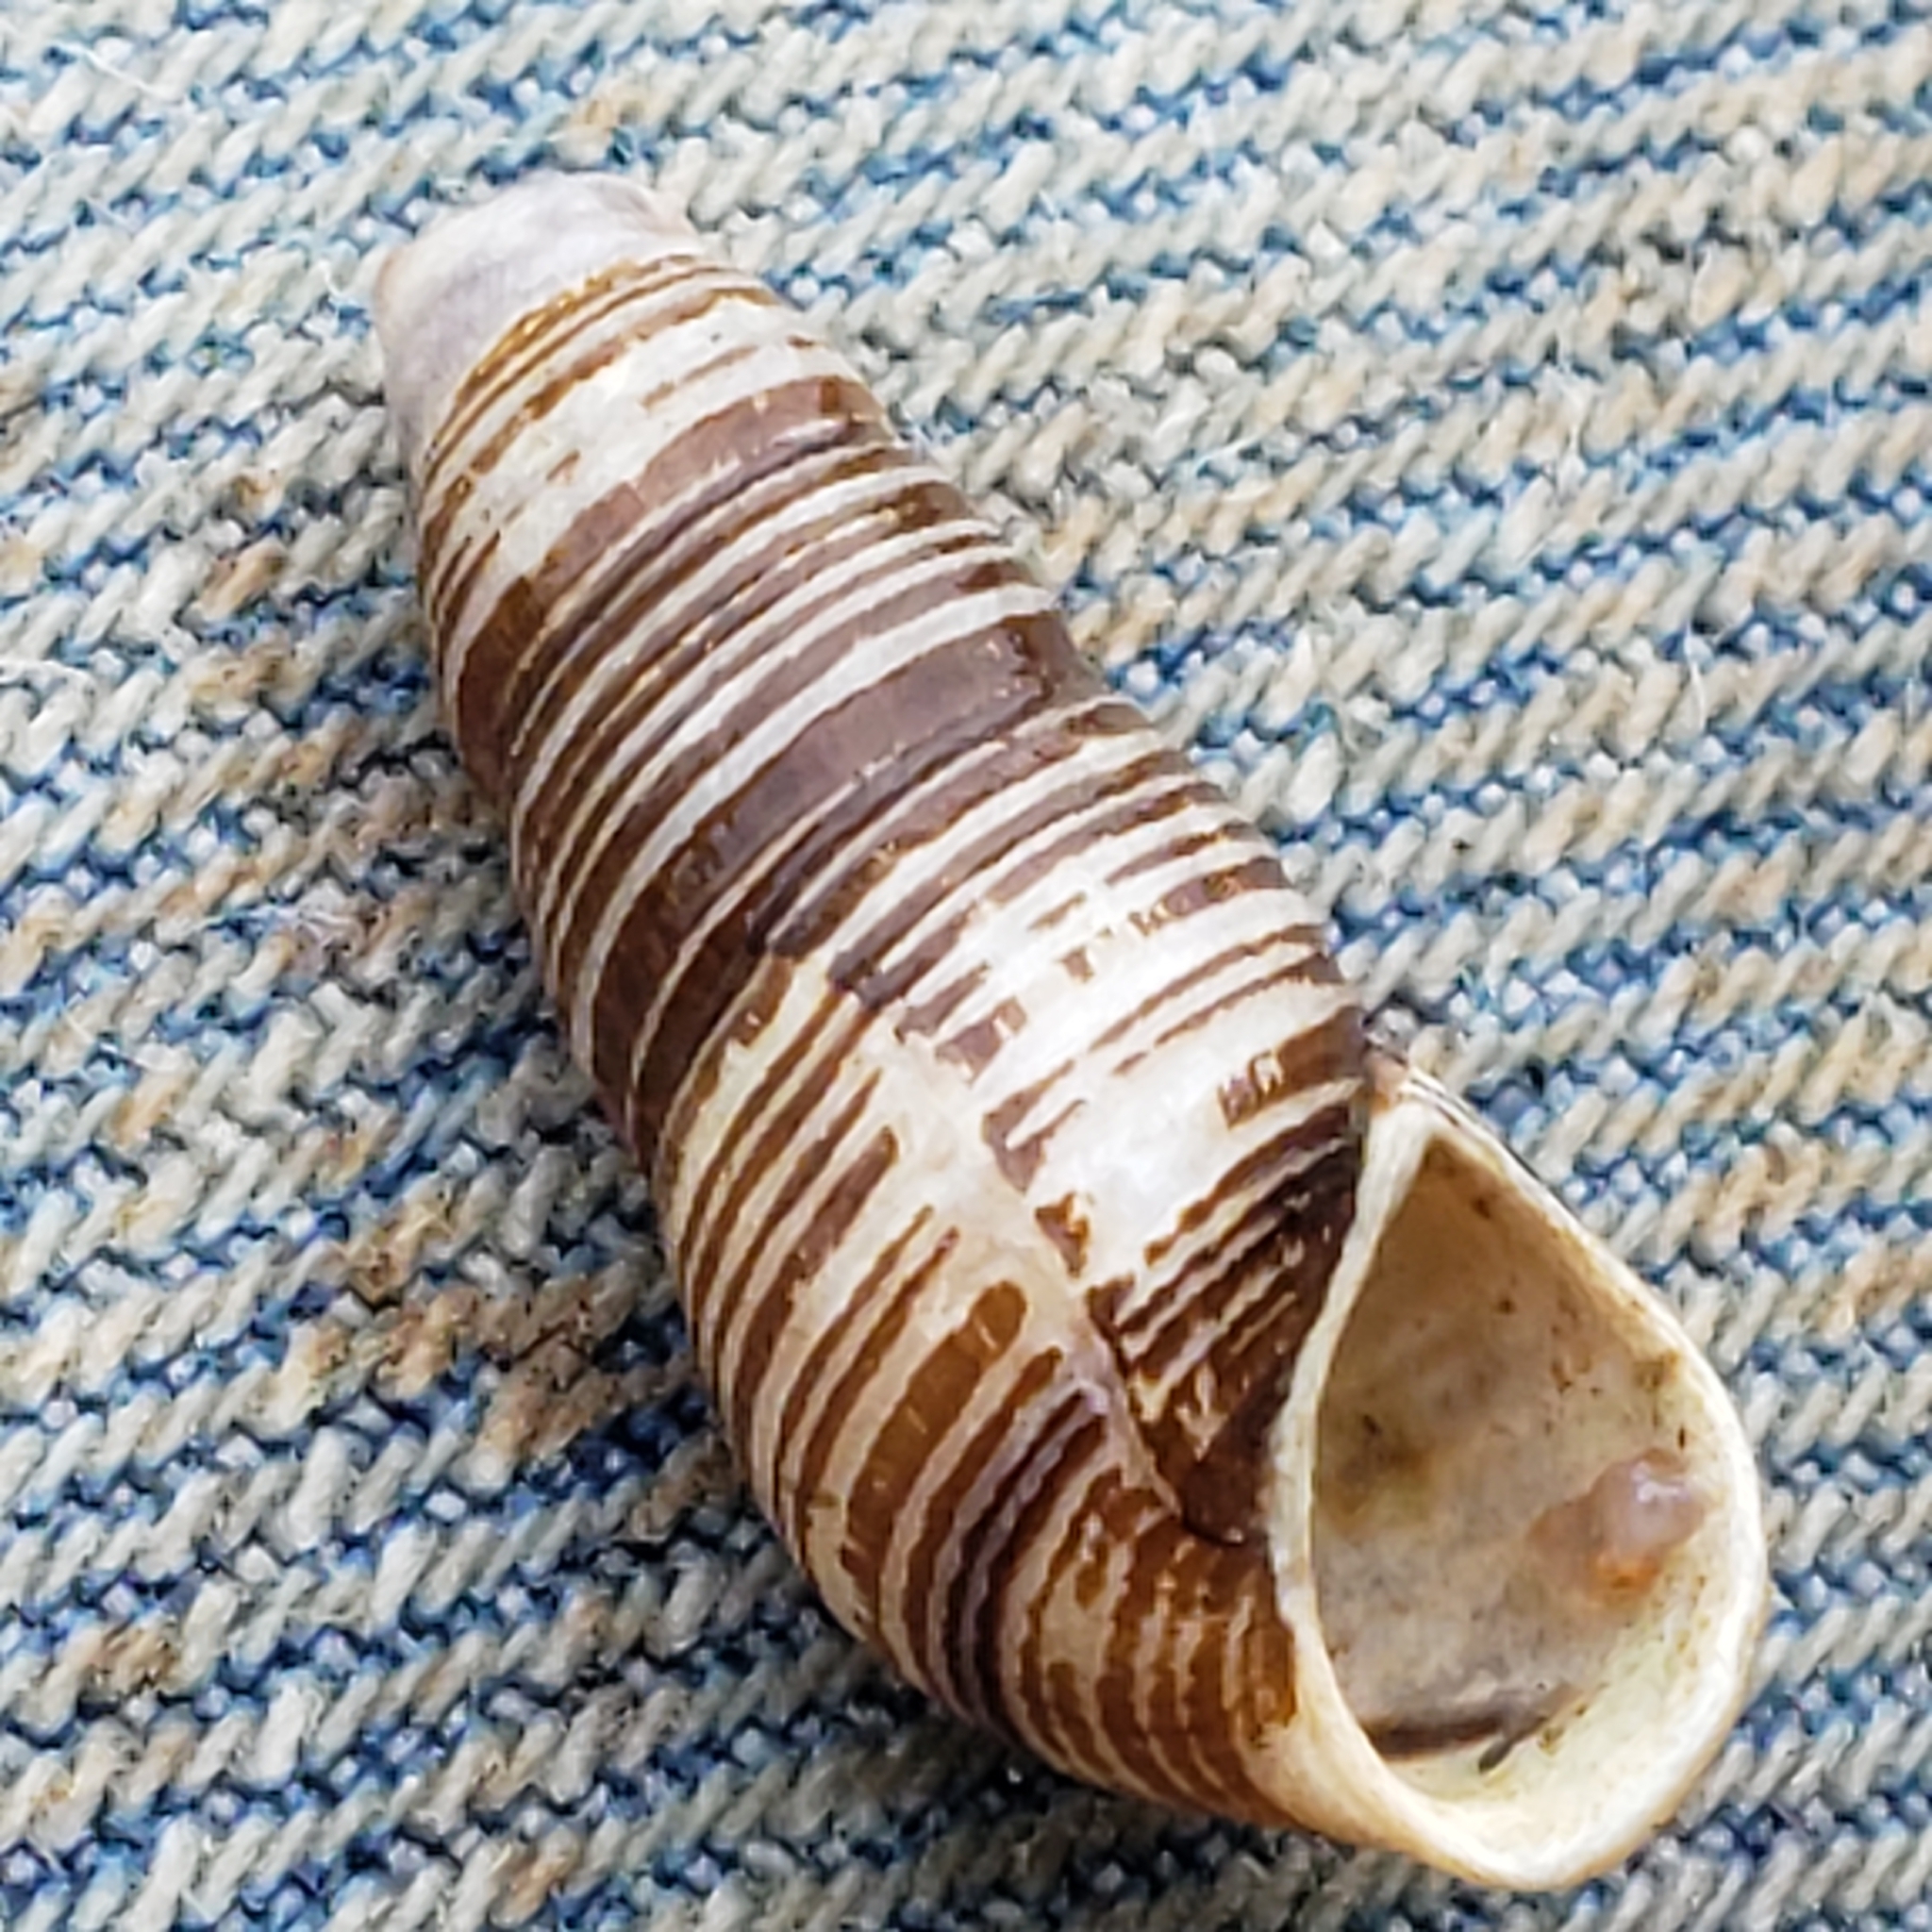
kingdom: Animalia
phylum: Mollusca
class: Gastropoda
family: Pleuroceridae
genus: Elimia
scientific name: Elimia virginica
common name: Piedmont elimia
